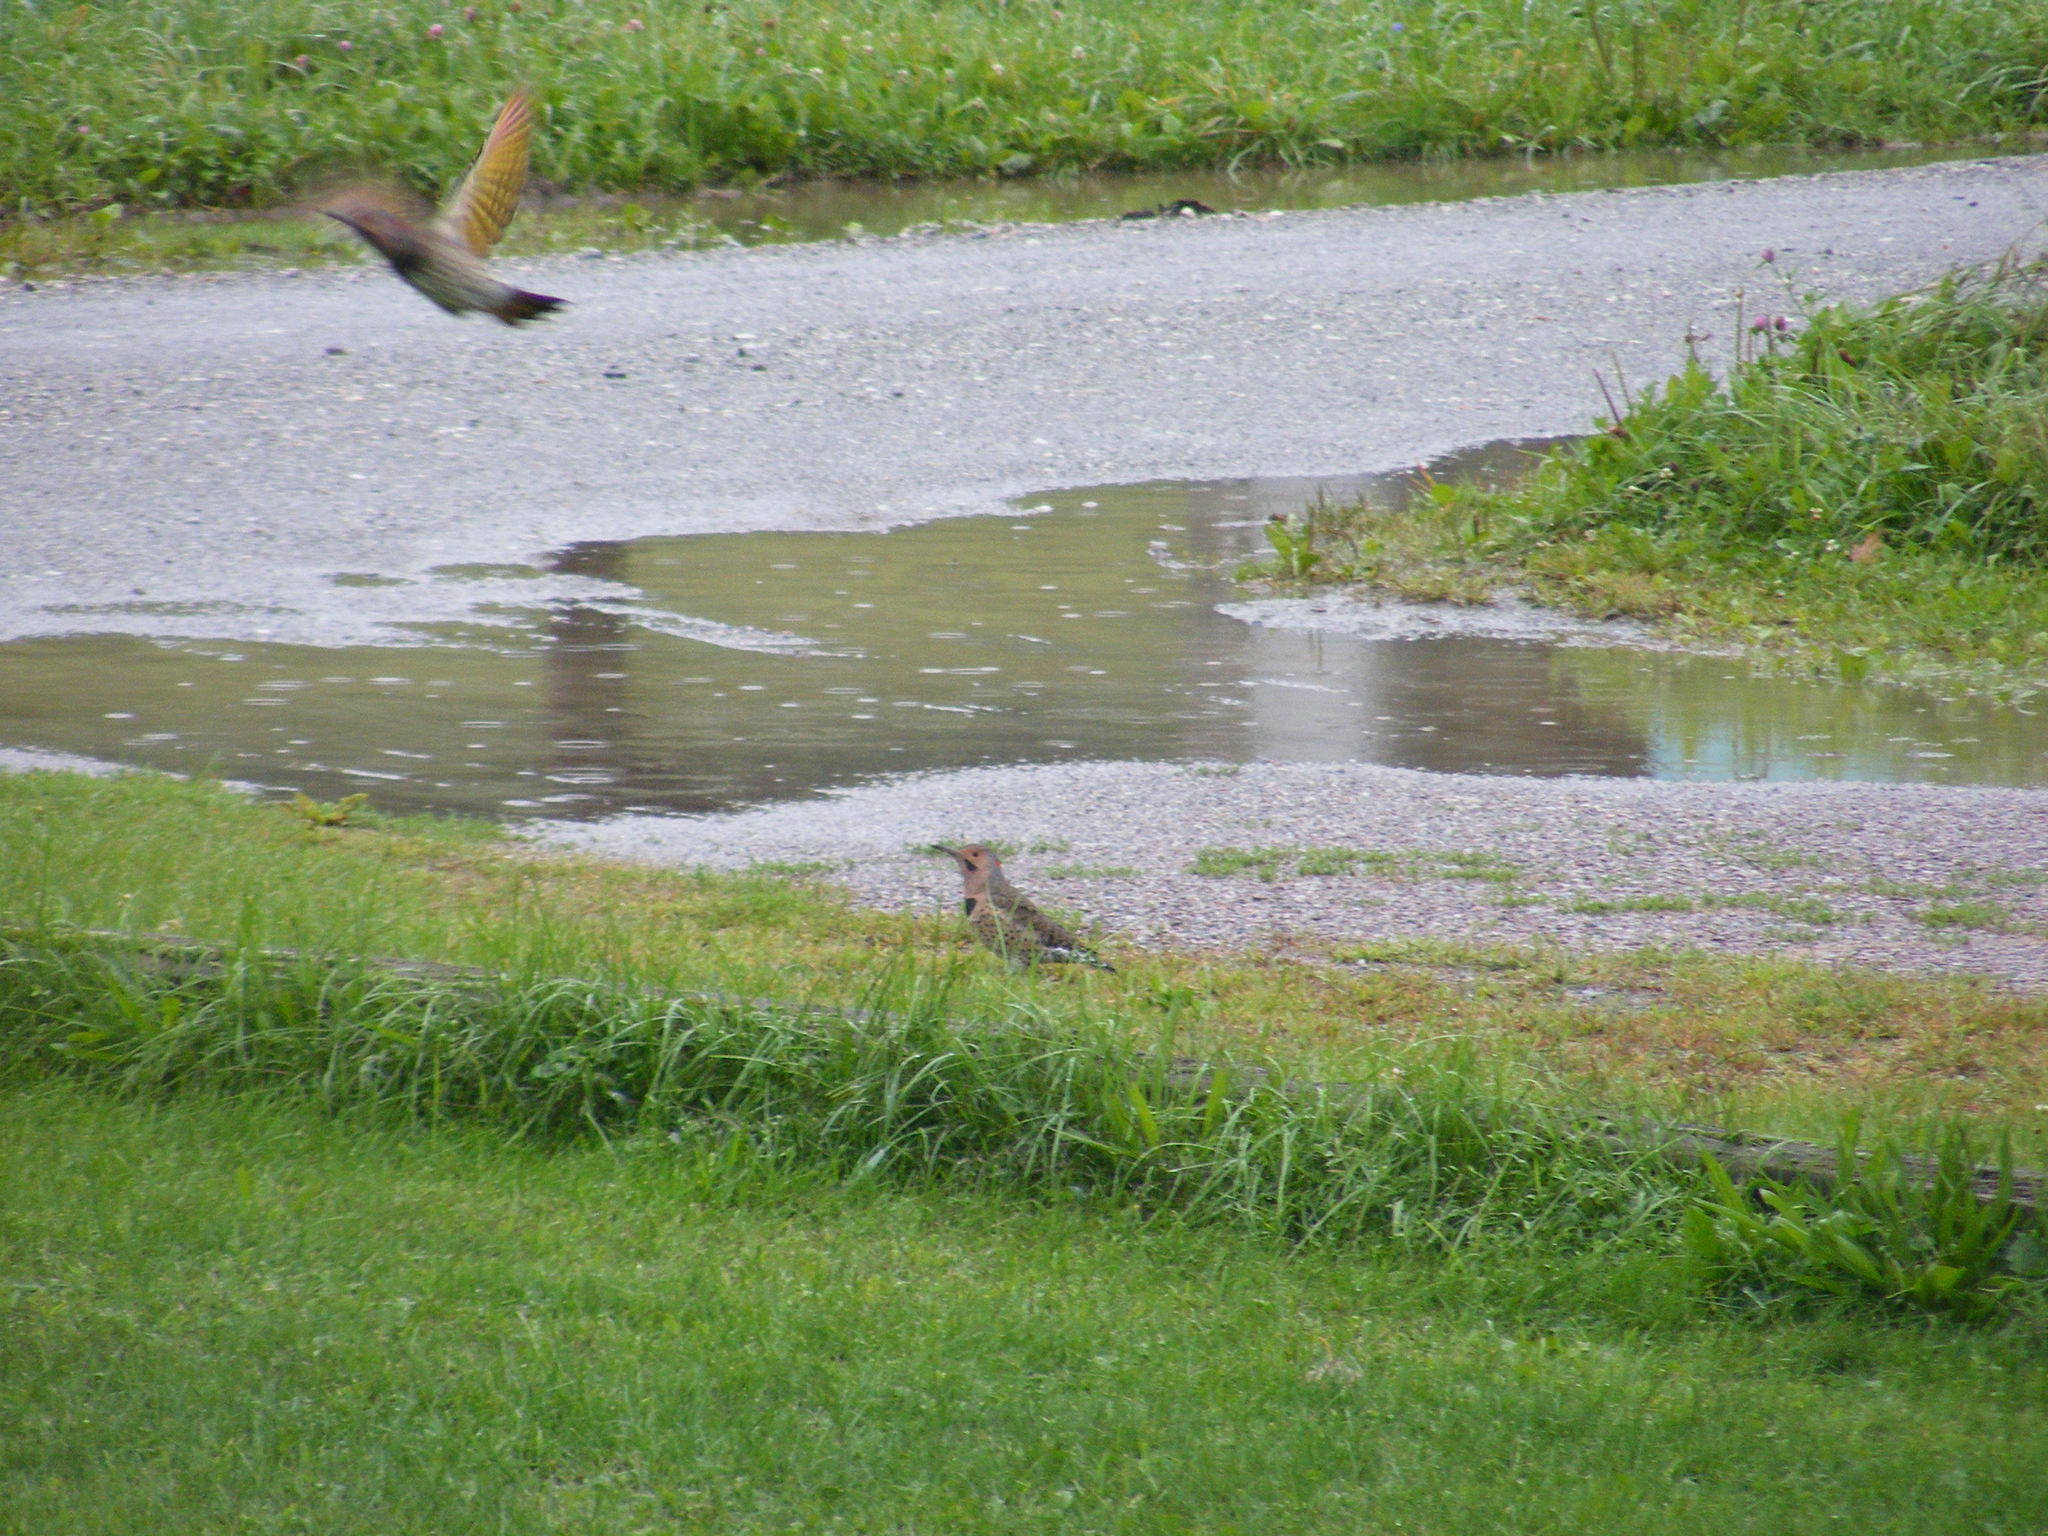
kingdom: Animalia
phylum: Chordata
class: Aves
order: Piciformes
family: Picidae
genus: Colaptes
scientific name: Colaptes auratus
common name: Northern flicker
